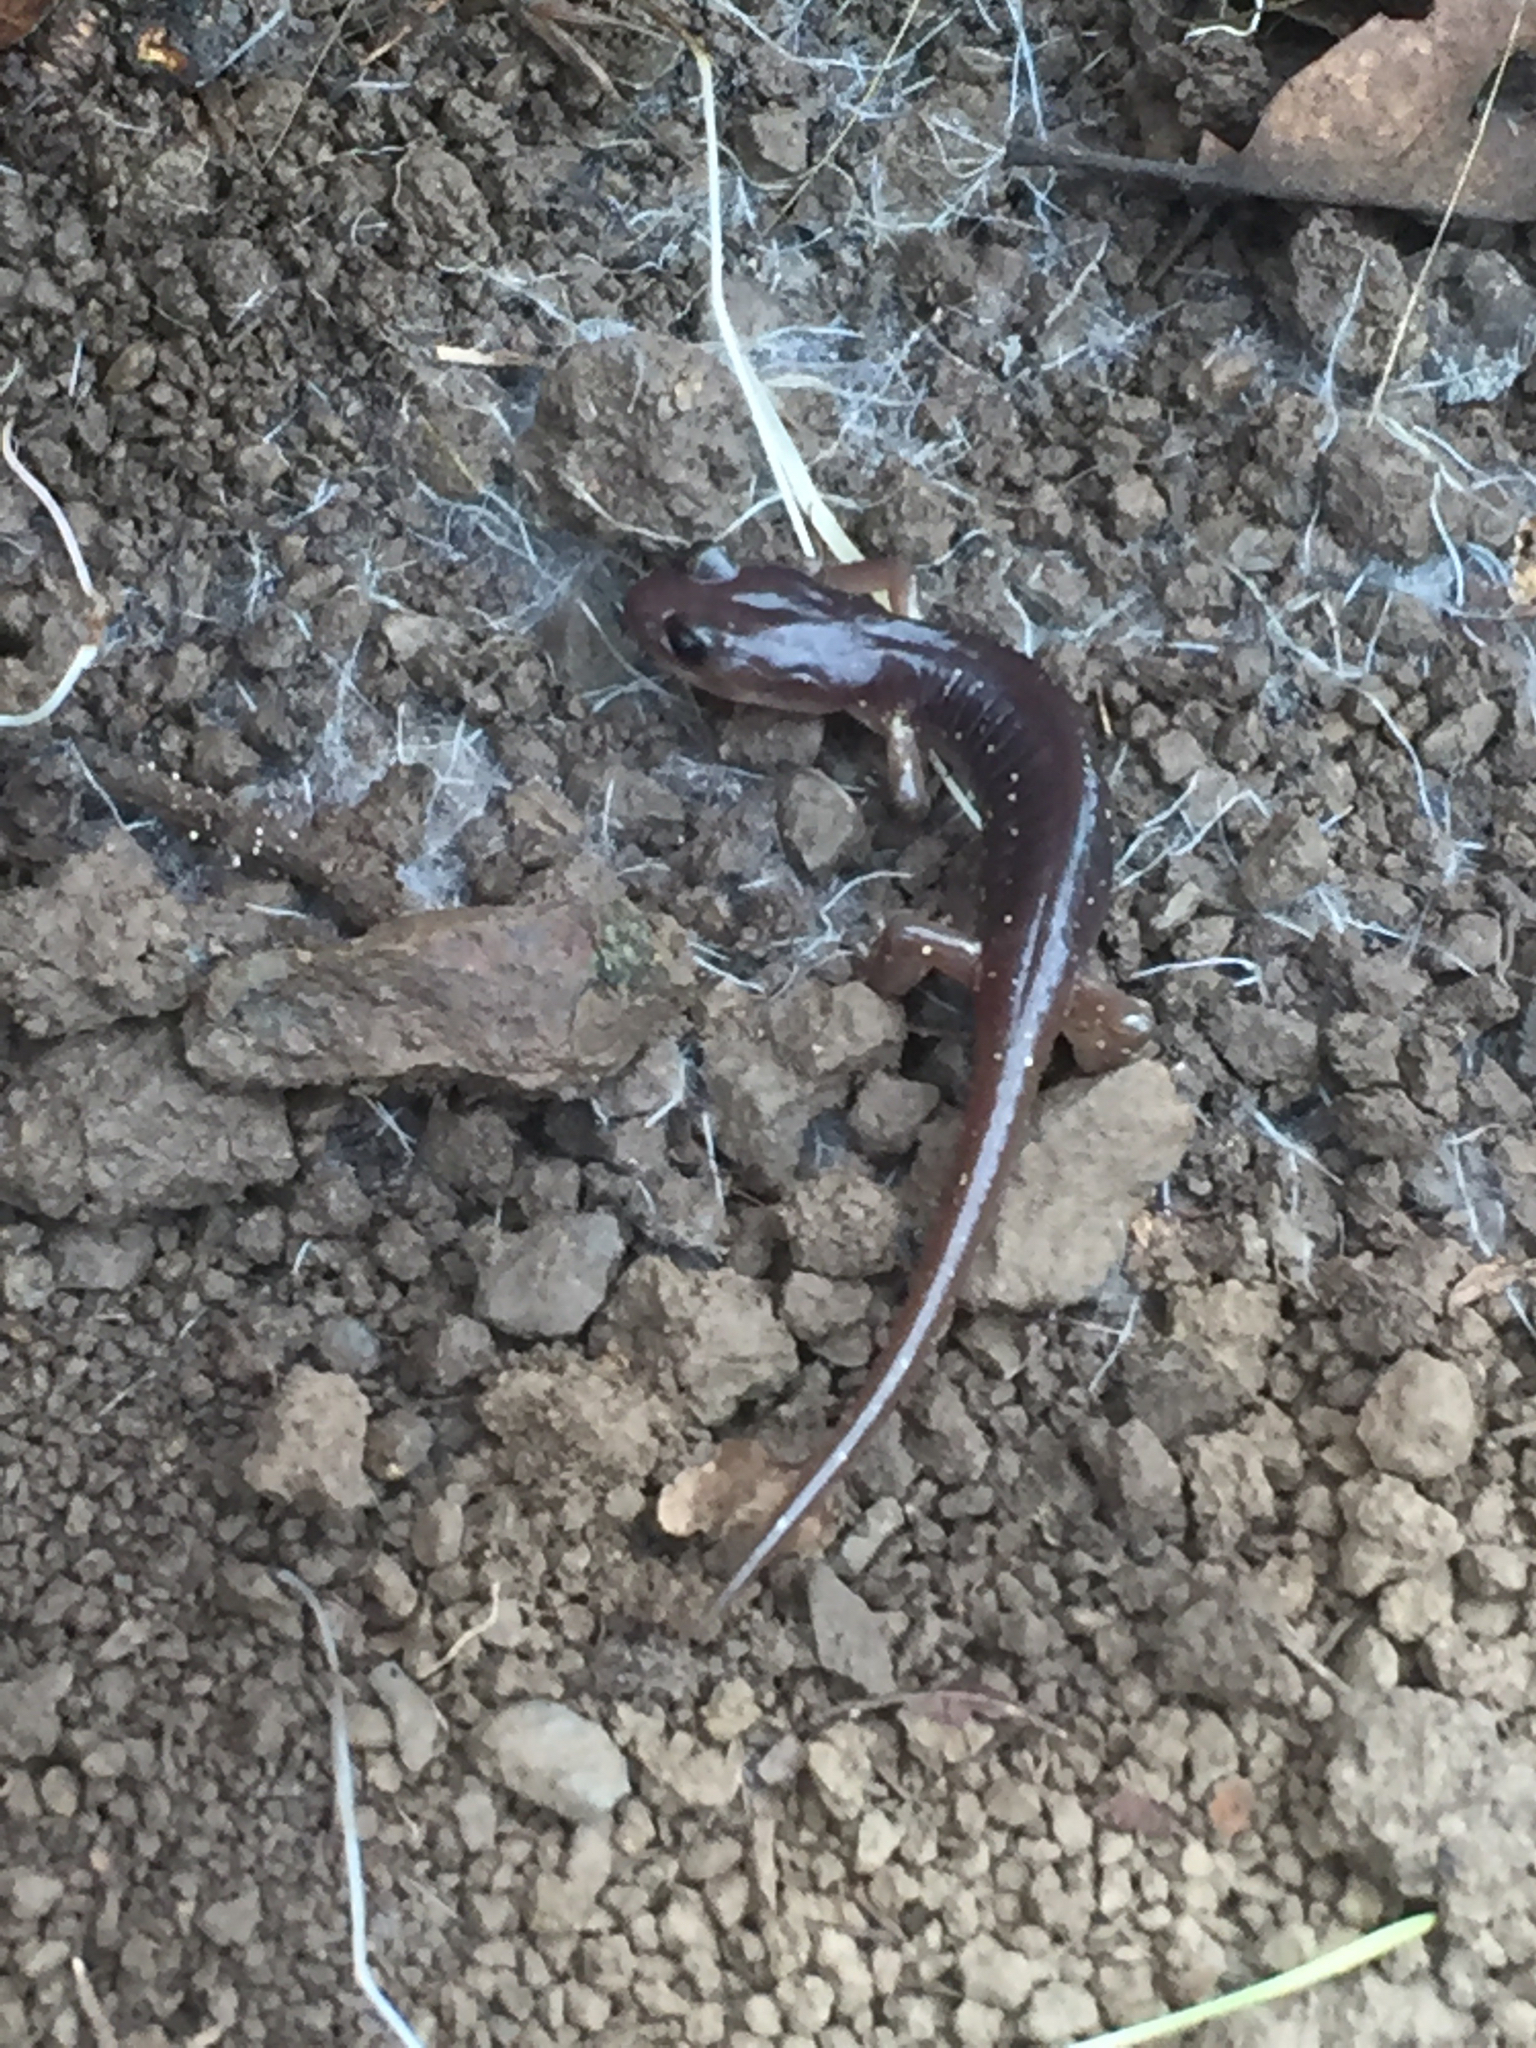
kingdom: Animalia
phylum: Chordata
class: Amphibia
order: Caudata
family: Plethodontidae
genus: Aneides
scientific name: Aneides lugubris
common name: Arboreal salamander
